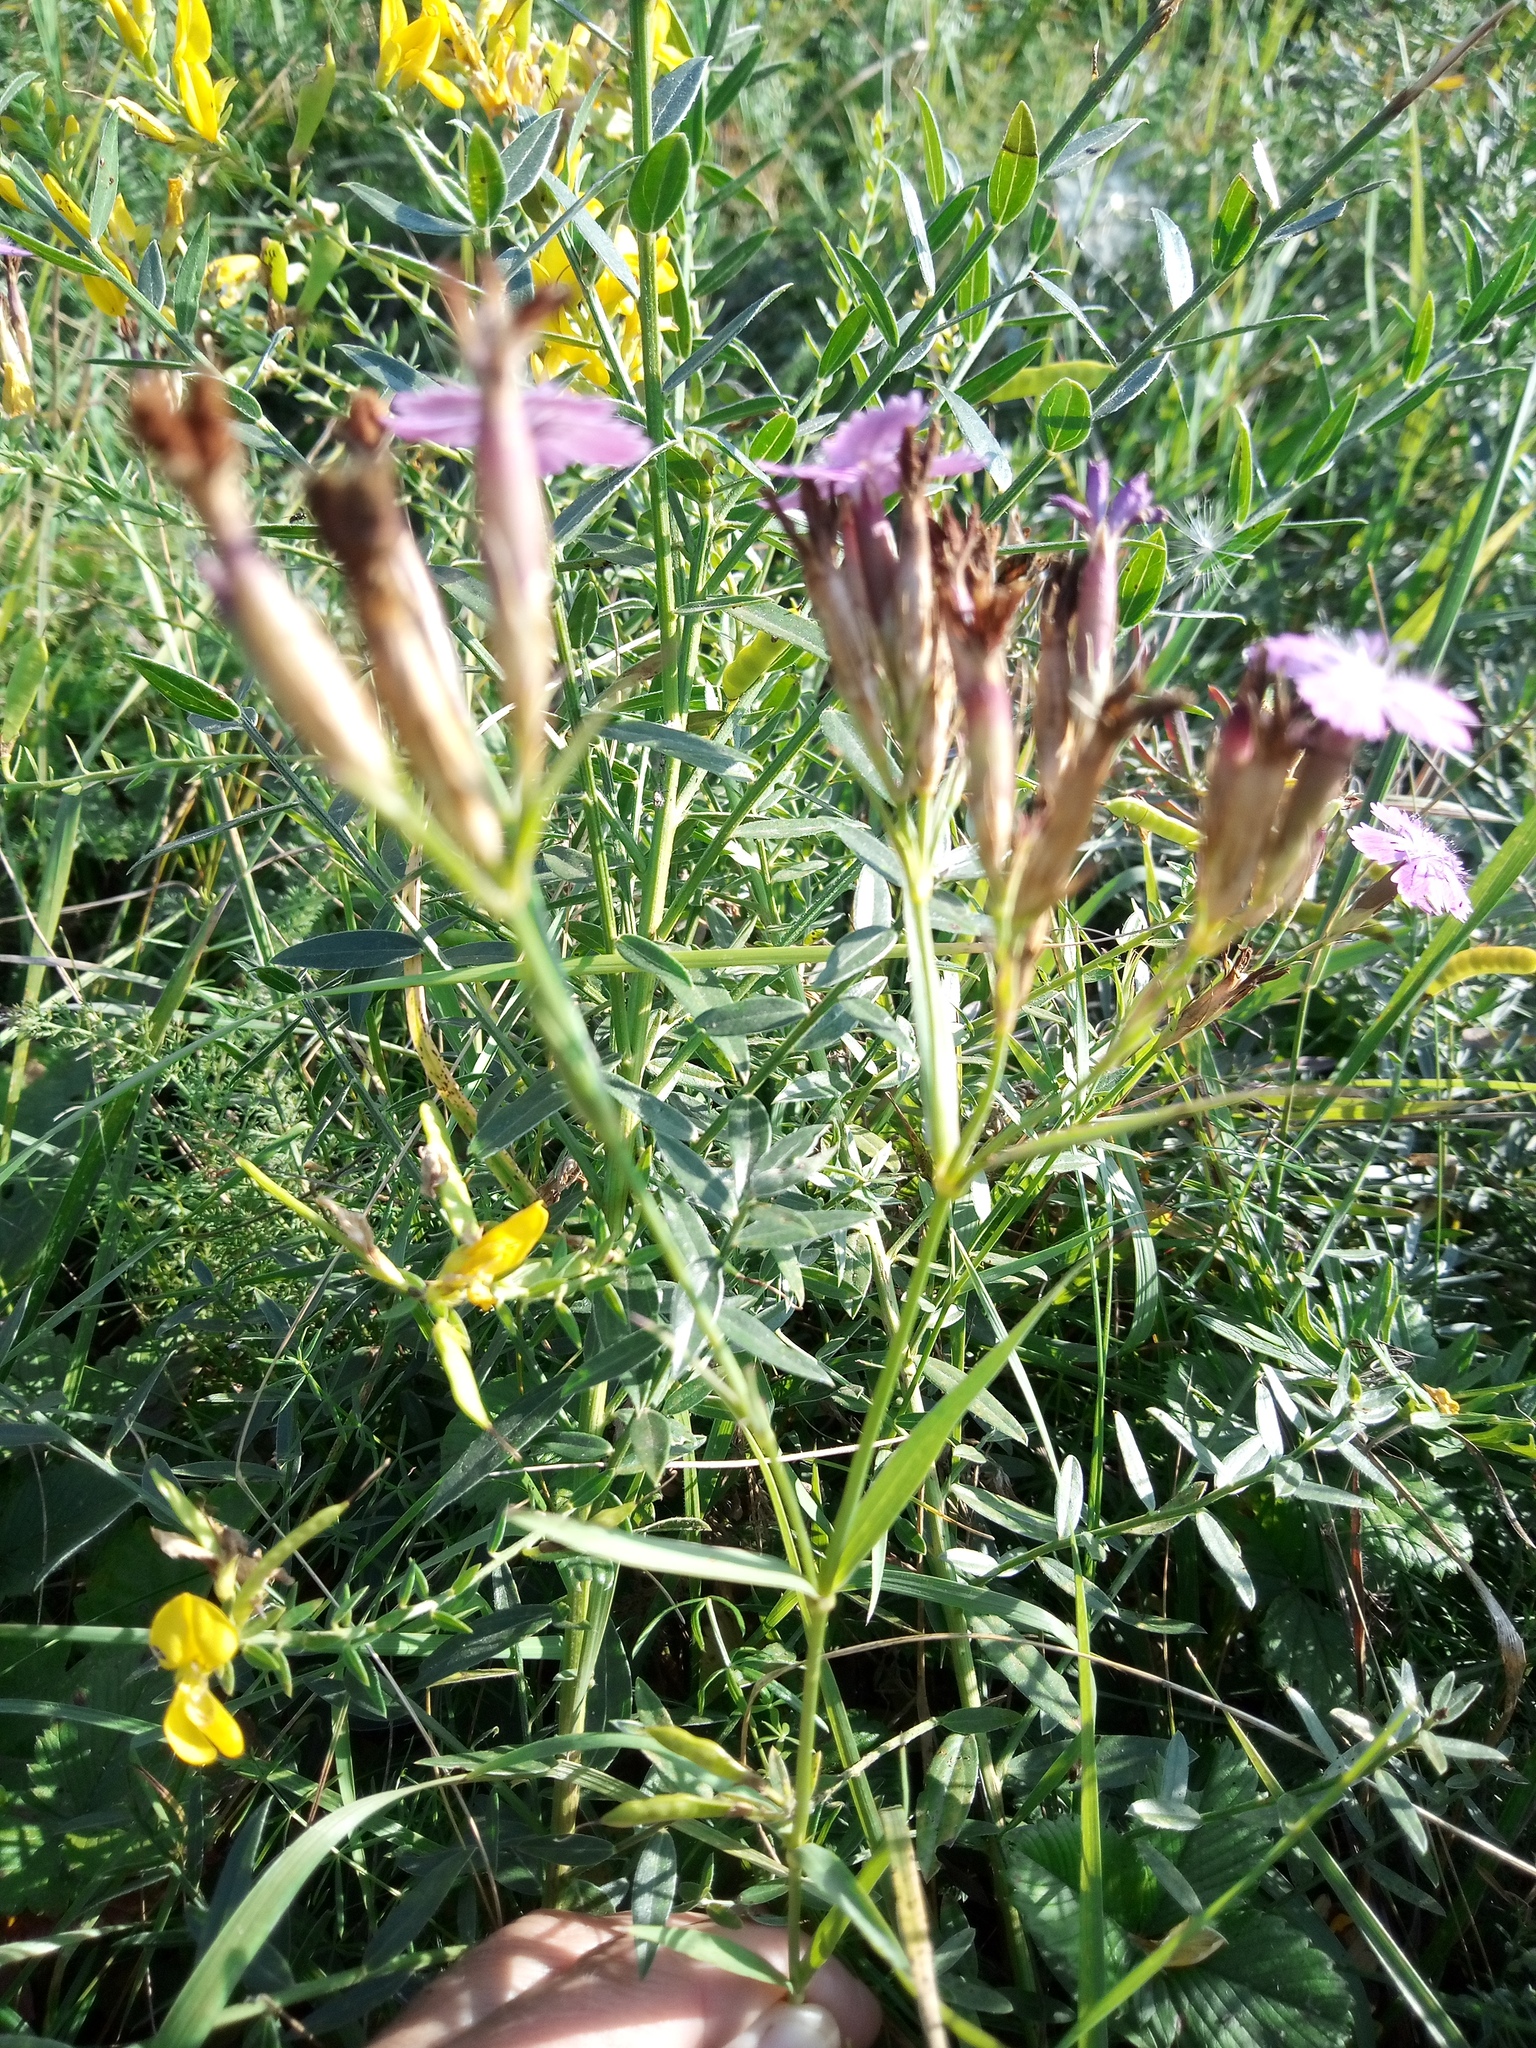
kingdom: Plantae
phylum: Tracheophyta
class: Magnoliopsida
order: Caryophyllales
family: Caryophyllaceae
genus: Dianthus
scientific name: Dianthus trifasciculatus
